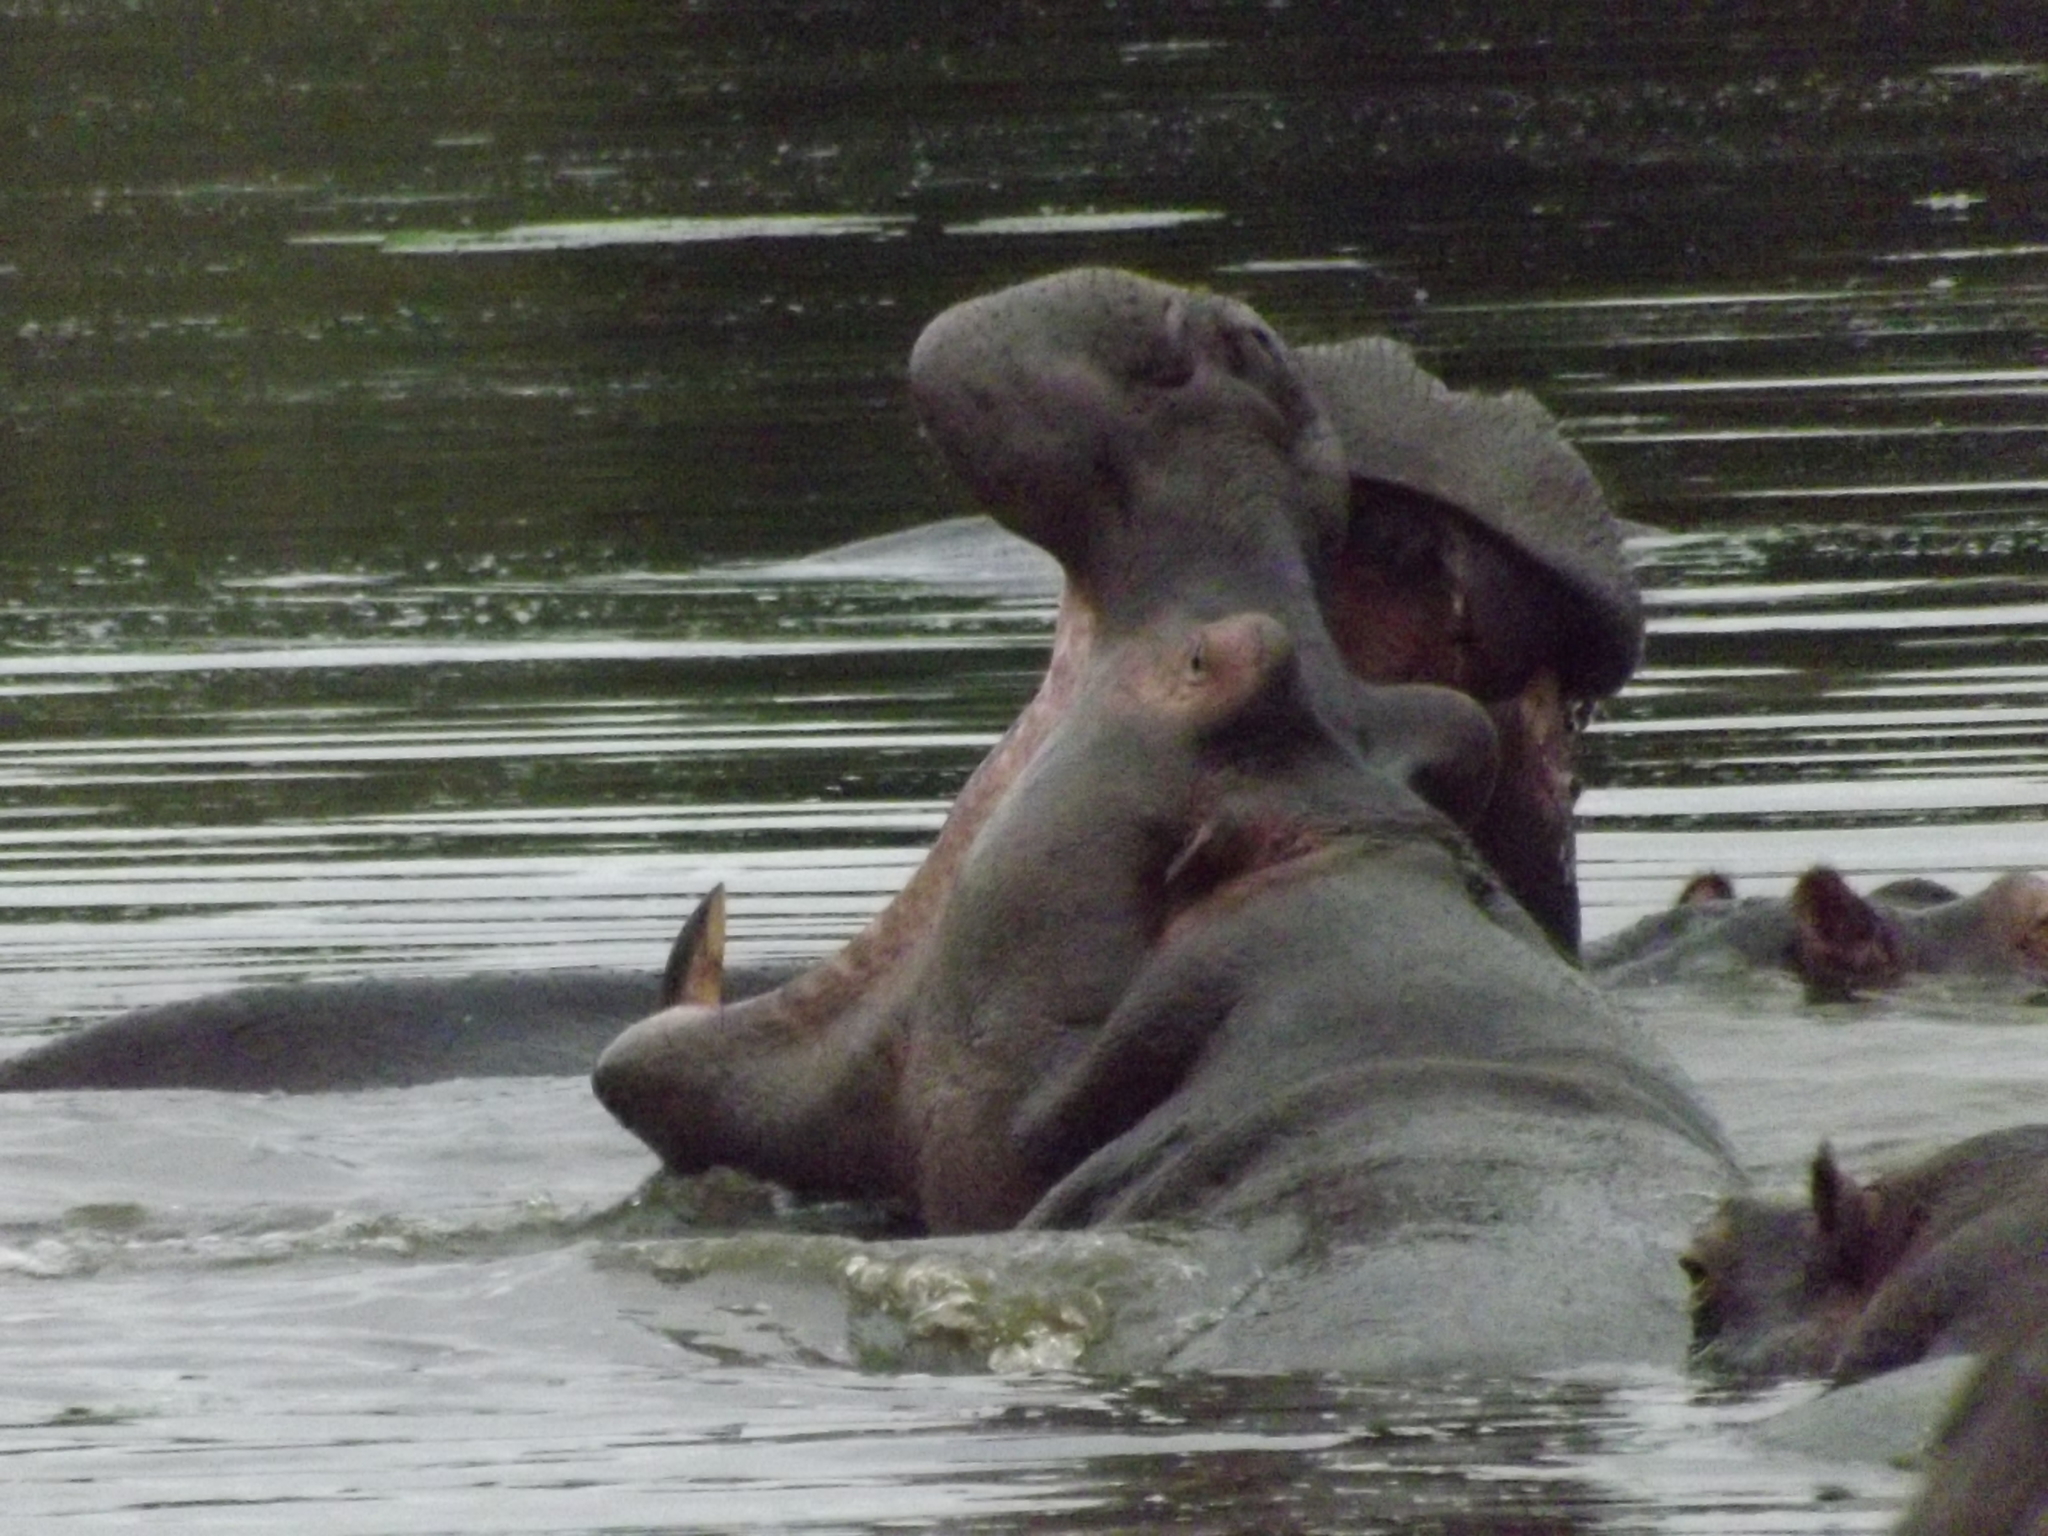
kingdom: Animalia
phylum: Chordata
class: Mammalia
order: Artiodactyla
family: Hippopotamidae
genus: Hippopotamus
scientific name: Hippopotamus amphibius
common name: Common hippopotamus
